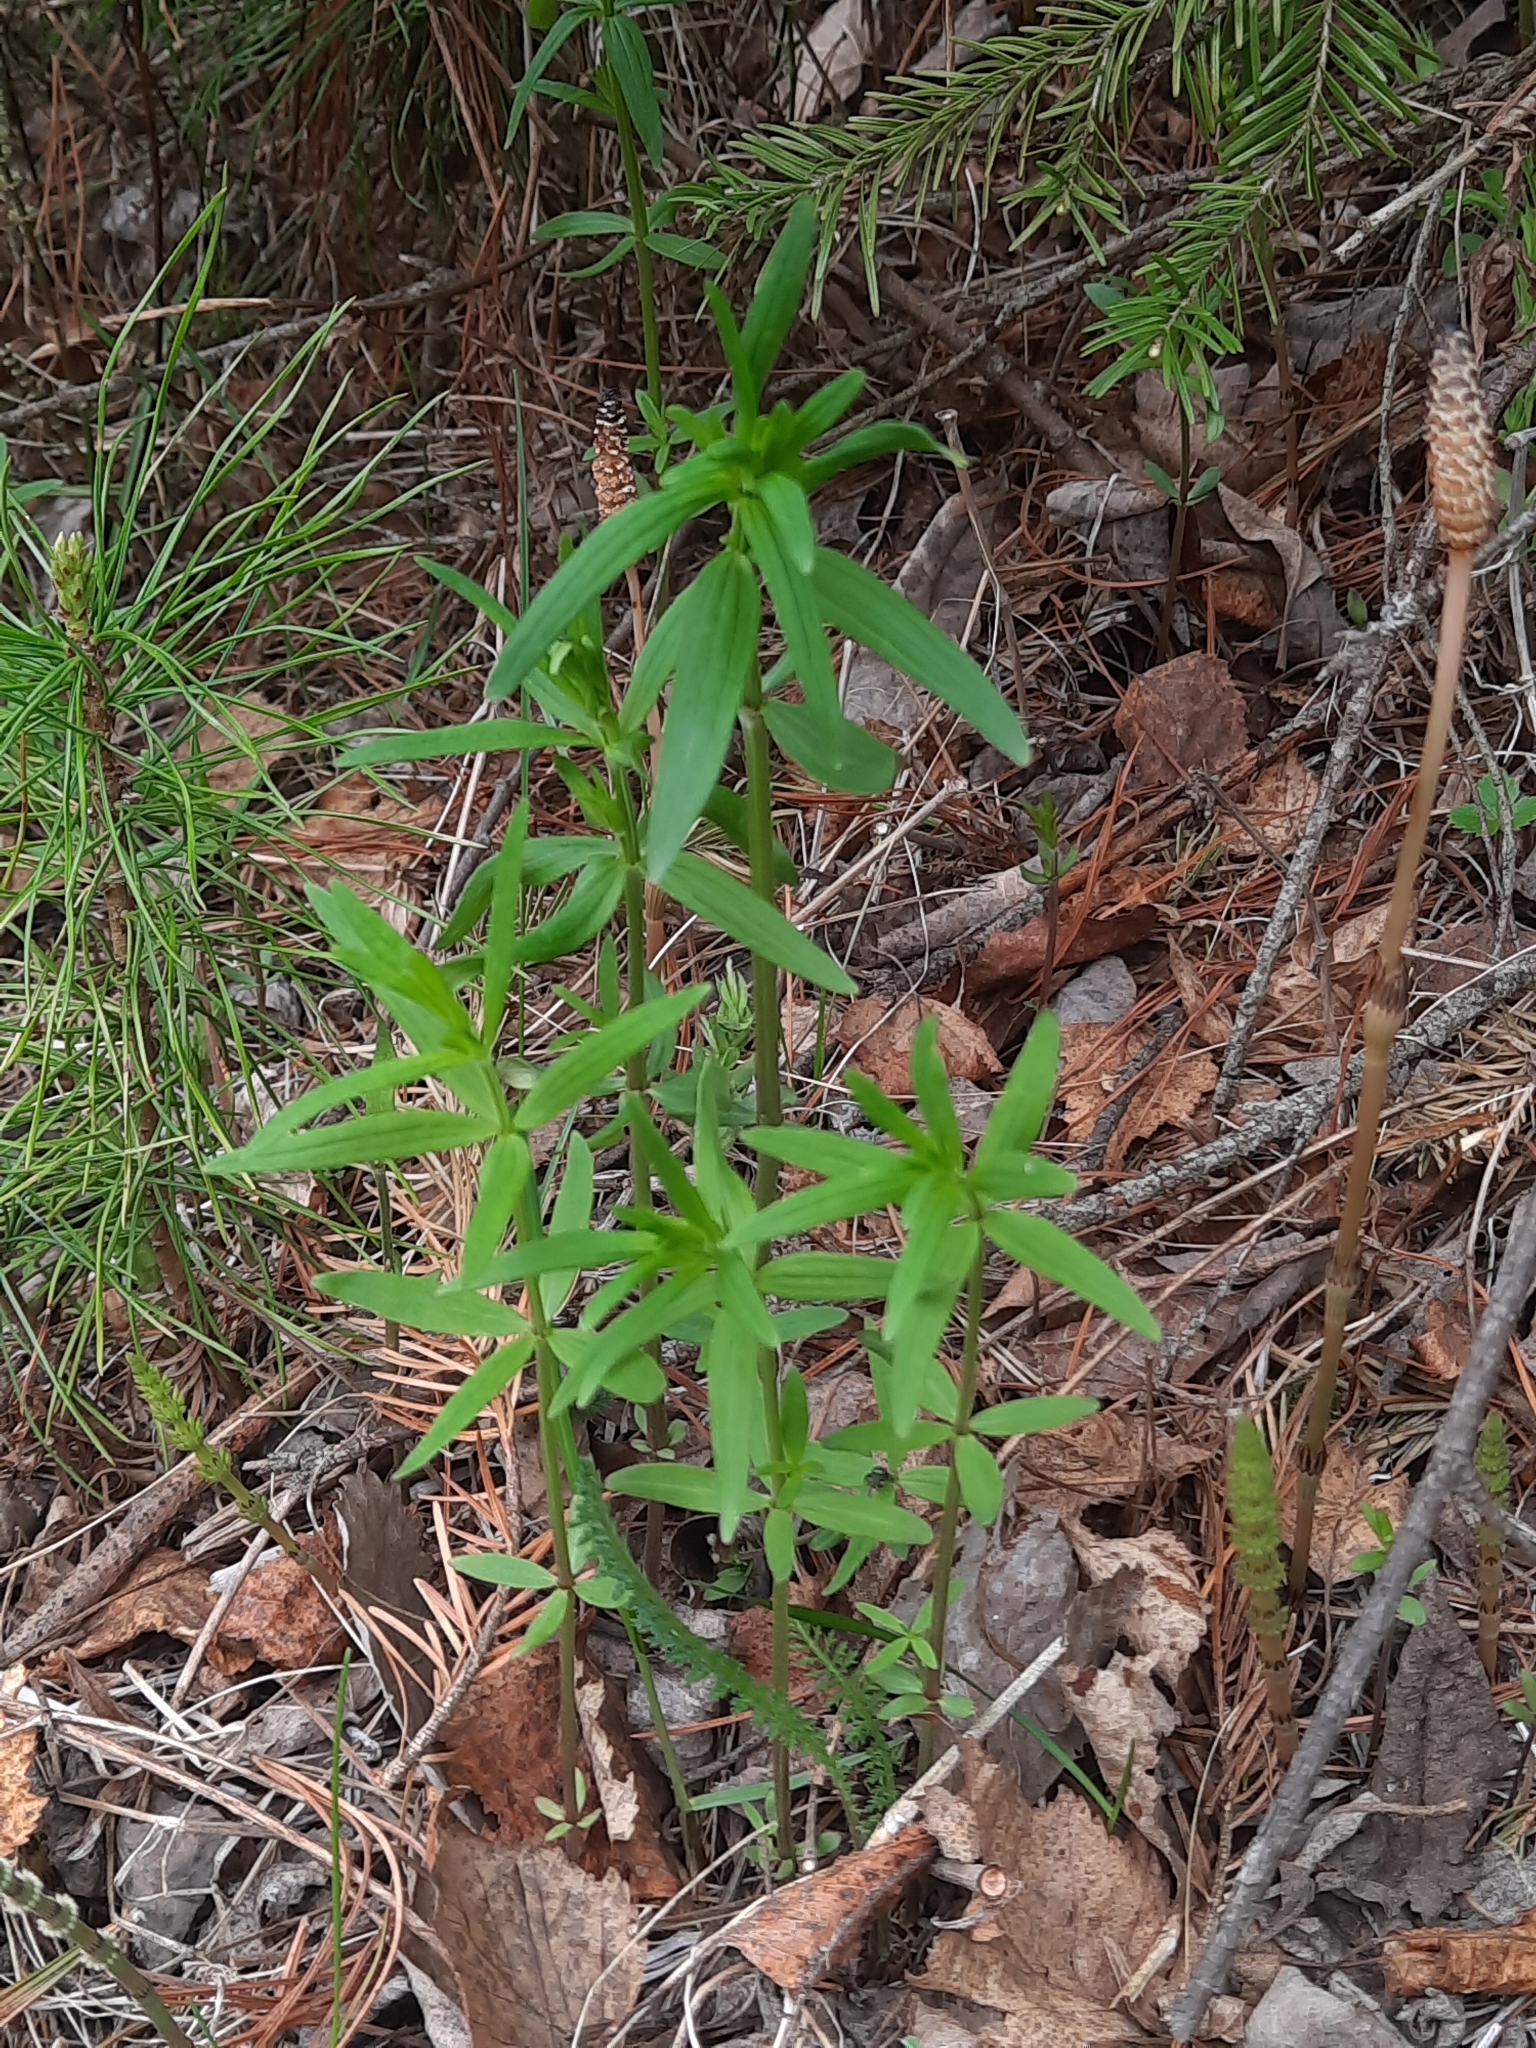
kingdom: Plantae
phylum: Tracheophyta
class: Magnoliopsida
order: Gentianales
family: Rubiaceae
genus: Galium
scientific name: Galium boreale
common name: Northern bedstraw
